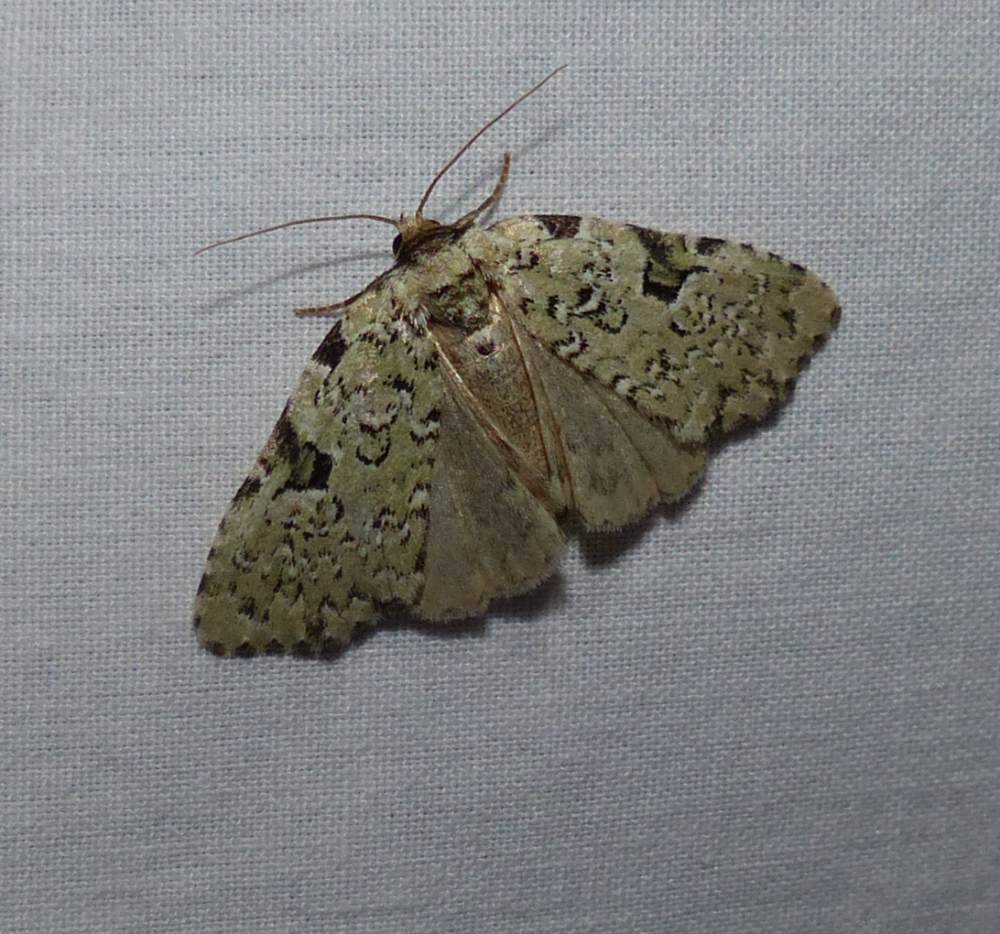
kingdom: Animalia
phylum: Arthropoda
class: Insecta
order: Lepidoptera
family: Noctuidae
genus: Leuconycta
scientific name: Leuconycta diphteroides
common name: Green leuconycta moth
